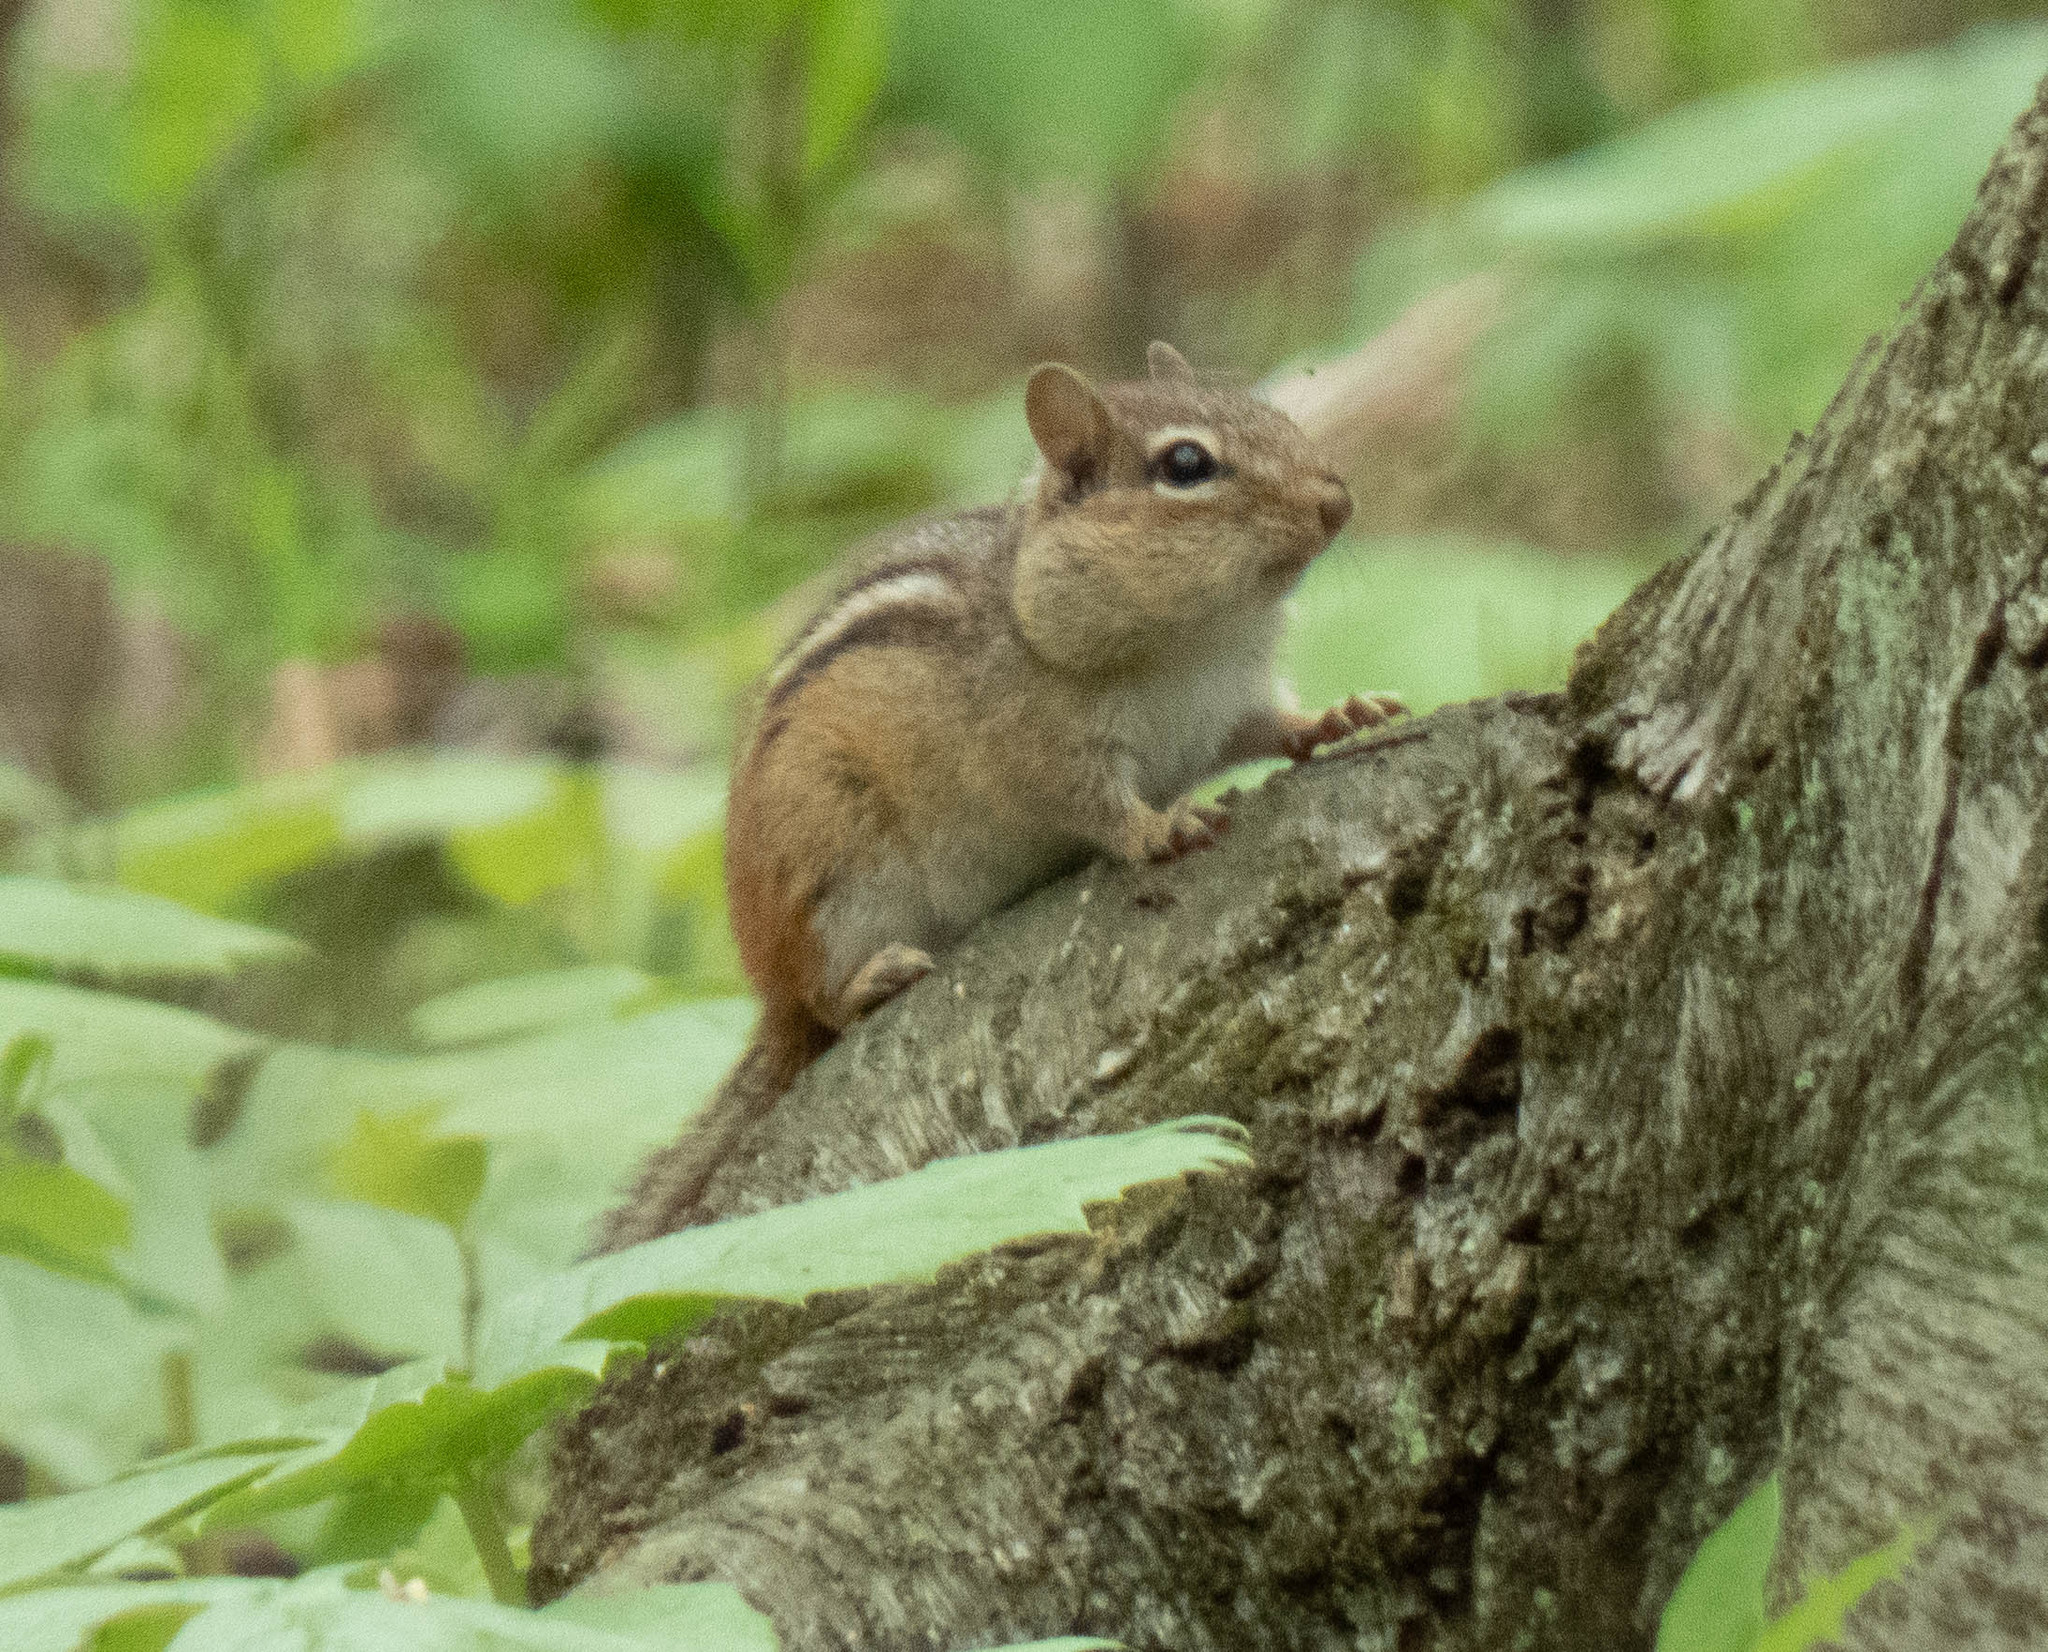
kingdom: Animalia
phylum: Chordata
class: Mammalia
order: Rodentia
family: Sciuridae
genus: Tamias
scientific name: Tamias striatus
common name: Eastern chipmunk
